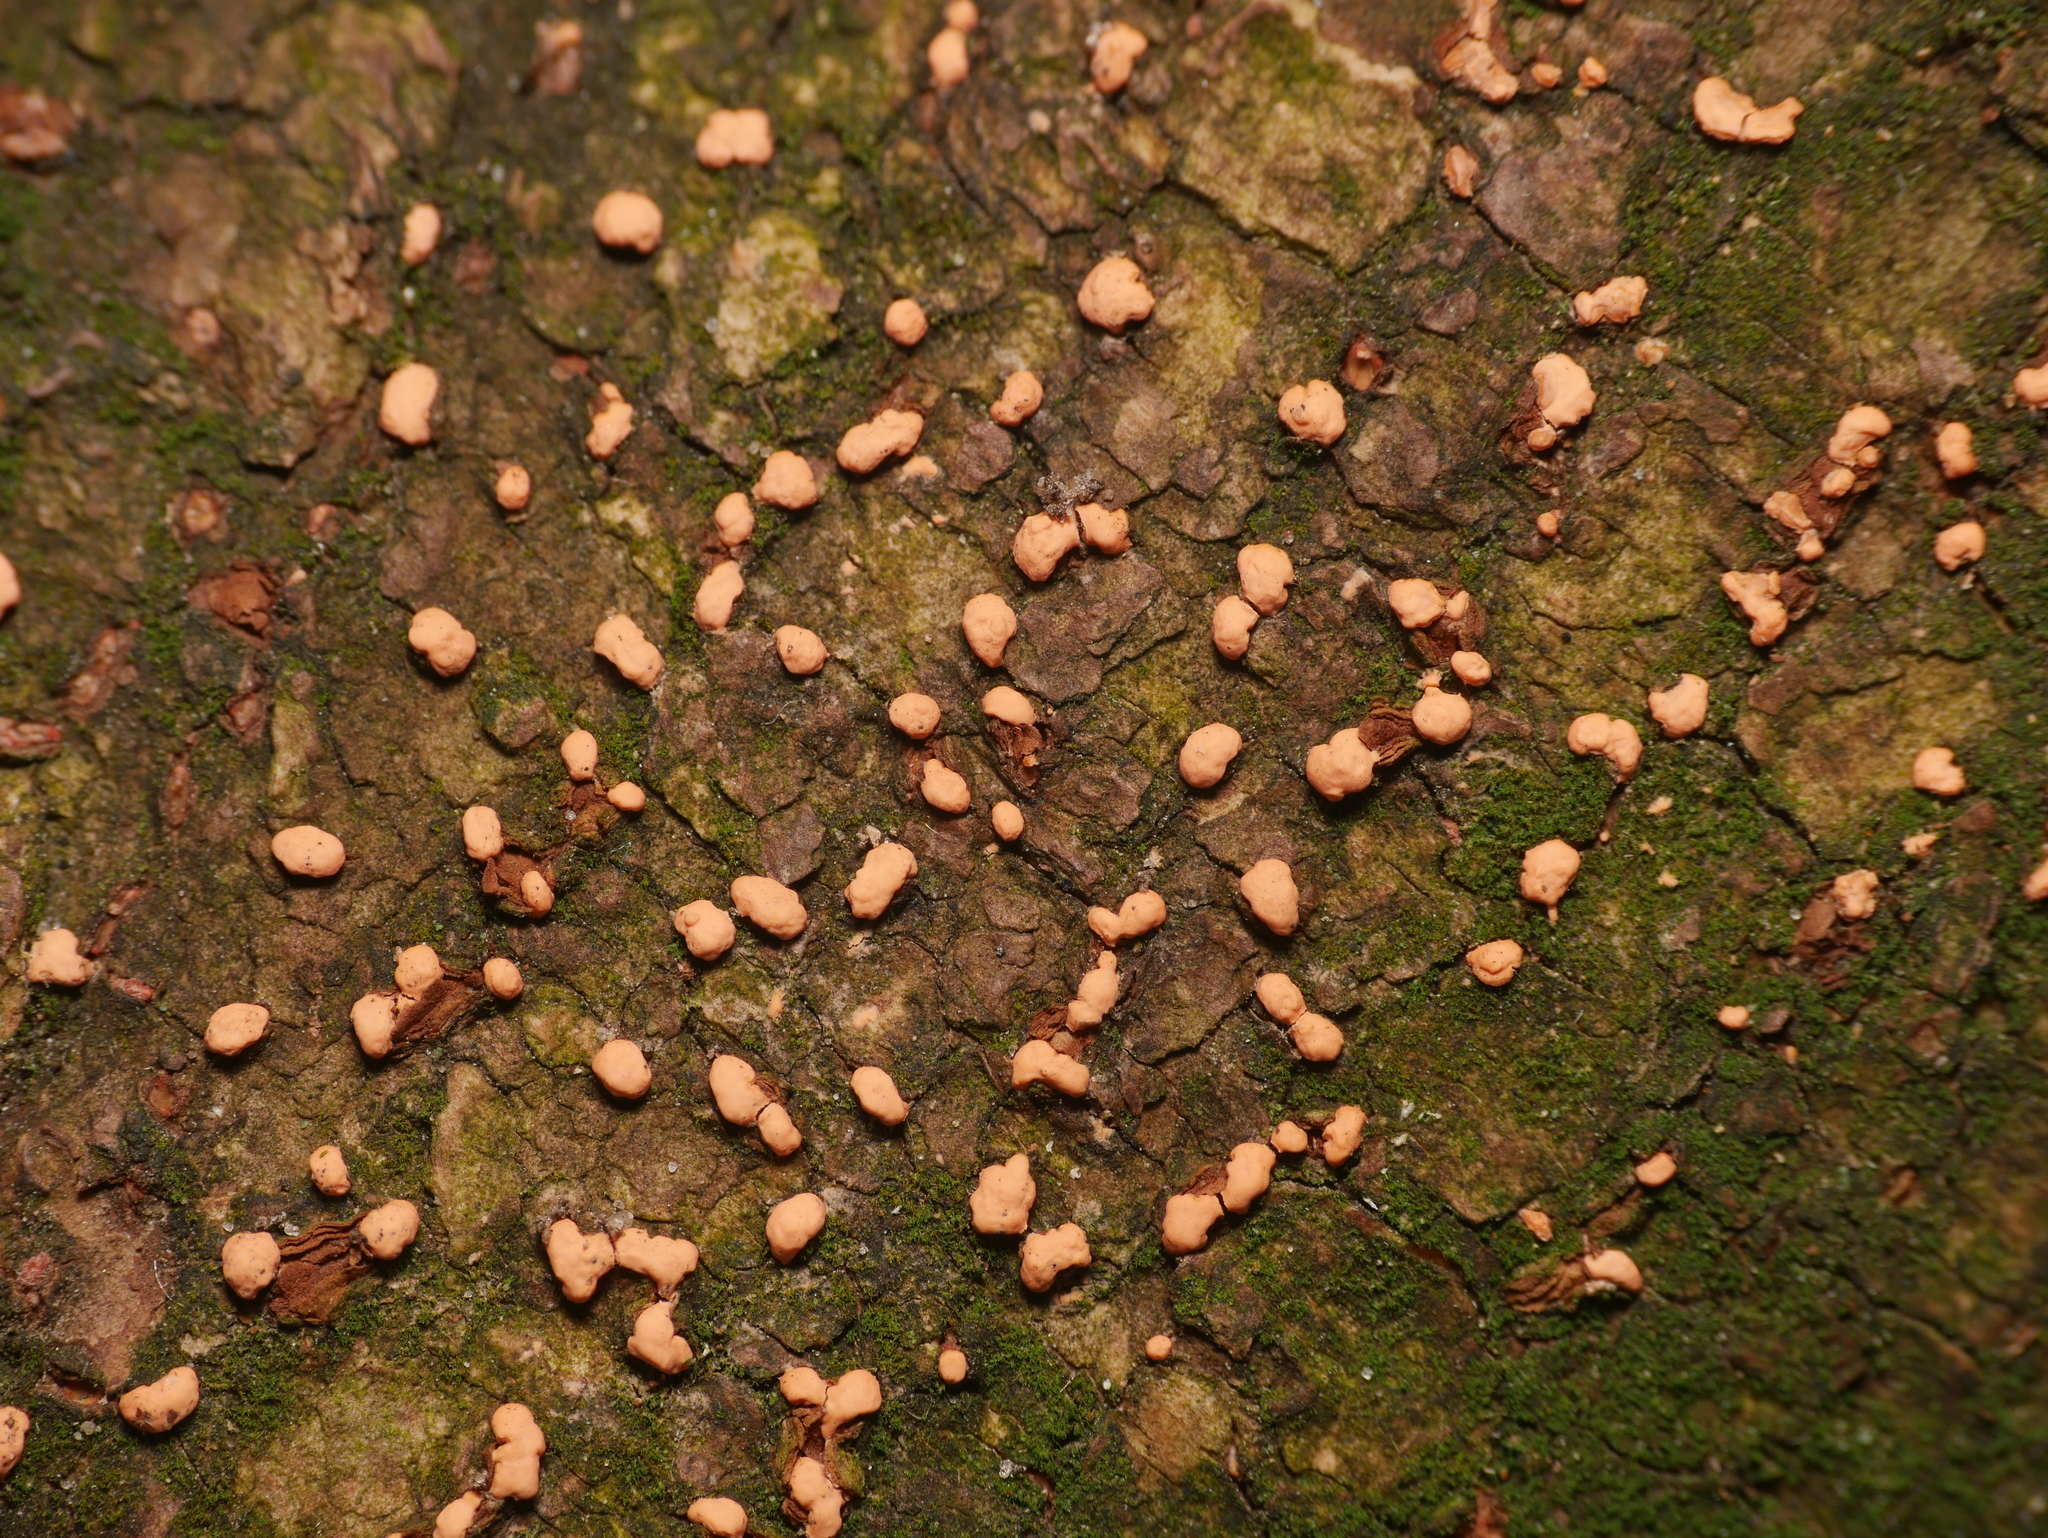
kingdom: Fungi
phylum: Ascomycota
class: Sordariomycetes
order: Hypocreales
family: Nectriaceae
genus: Nectria
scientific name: Nectria cinnabarina
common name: Coral spot
